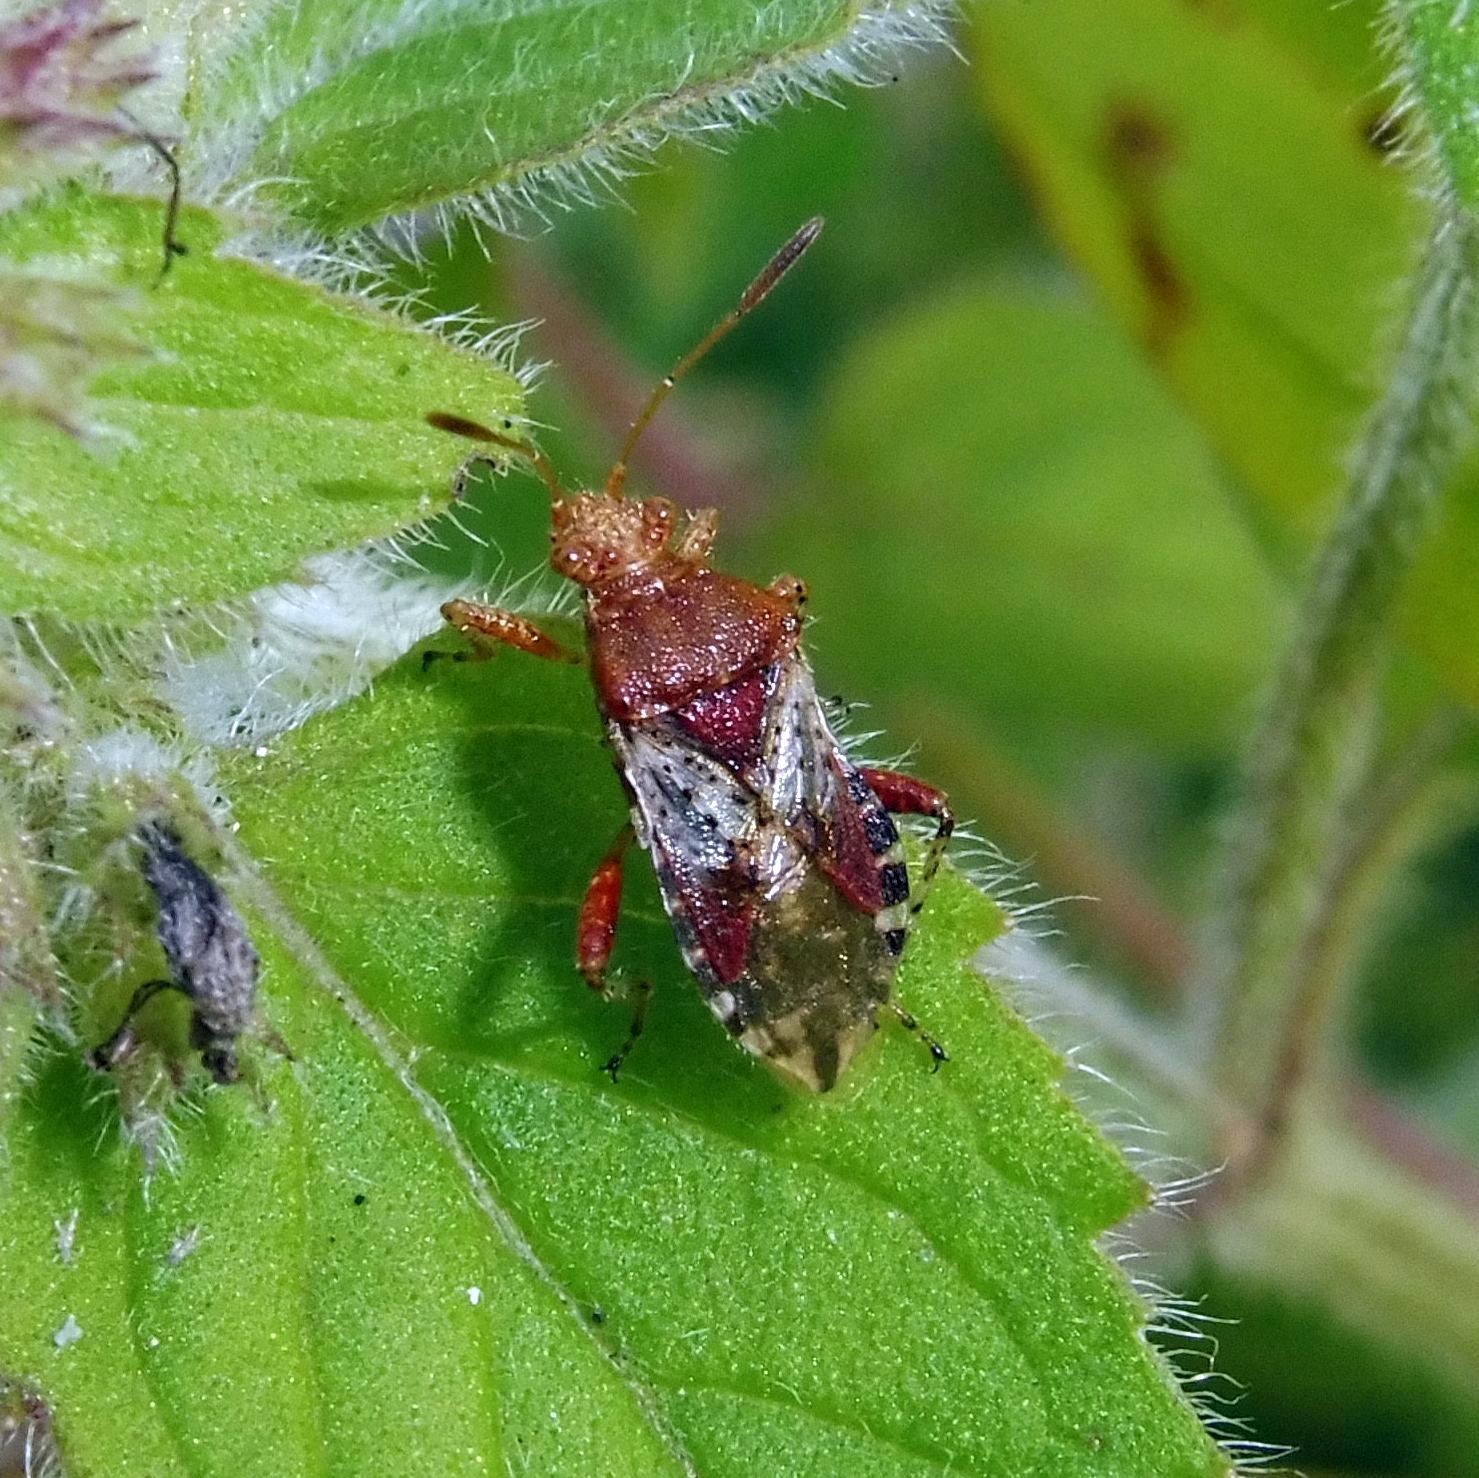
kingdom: Animalia
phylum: Arthropoda
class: Insecta
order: Hemiptera
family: Rhopalidae
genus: Rhopalus
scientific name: Rhopalus subrufus
